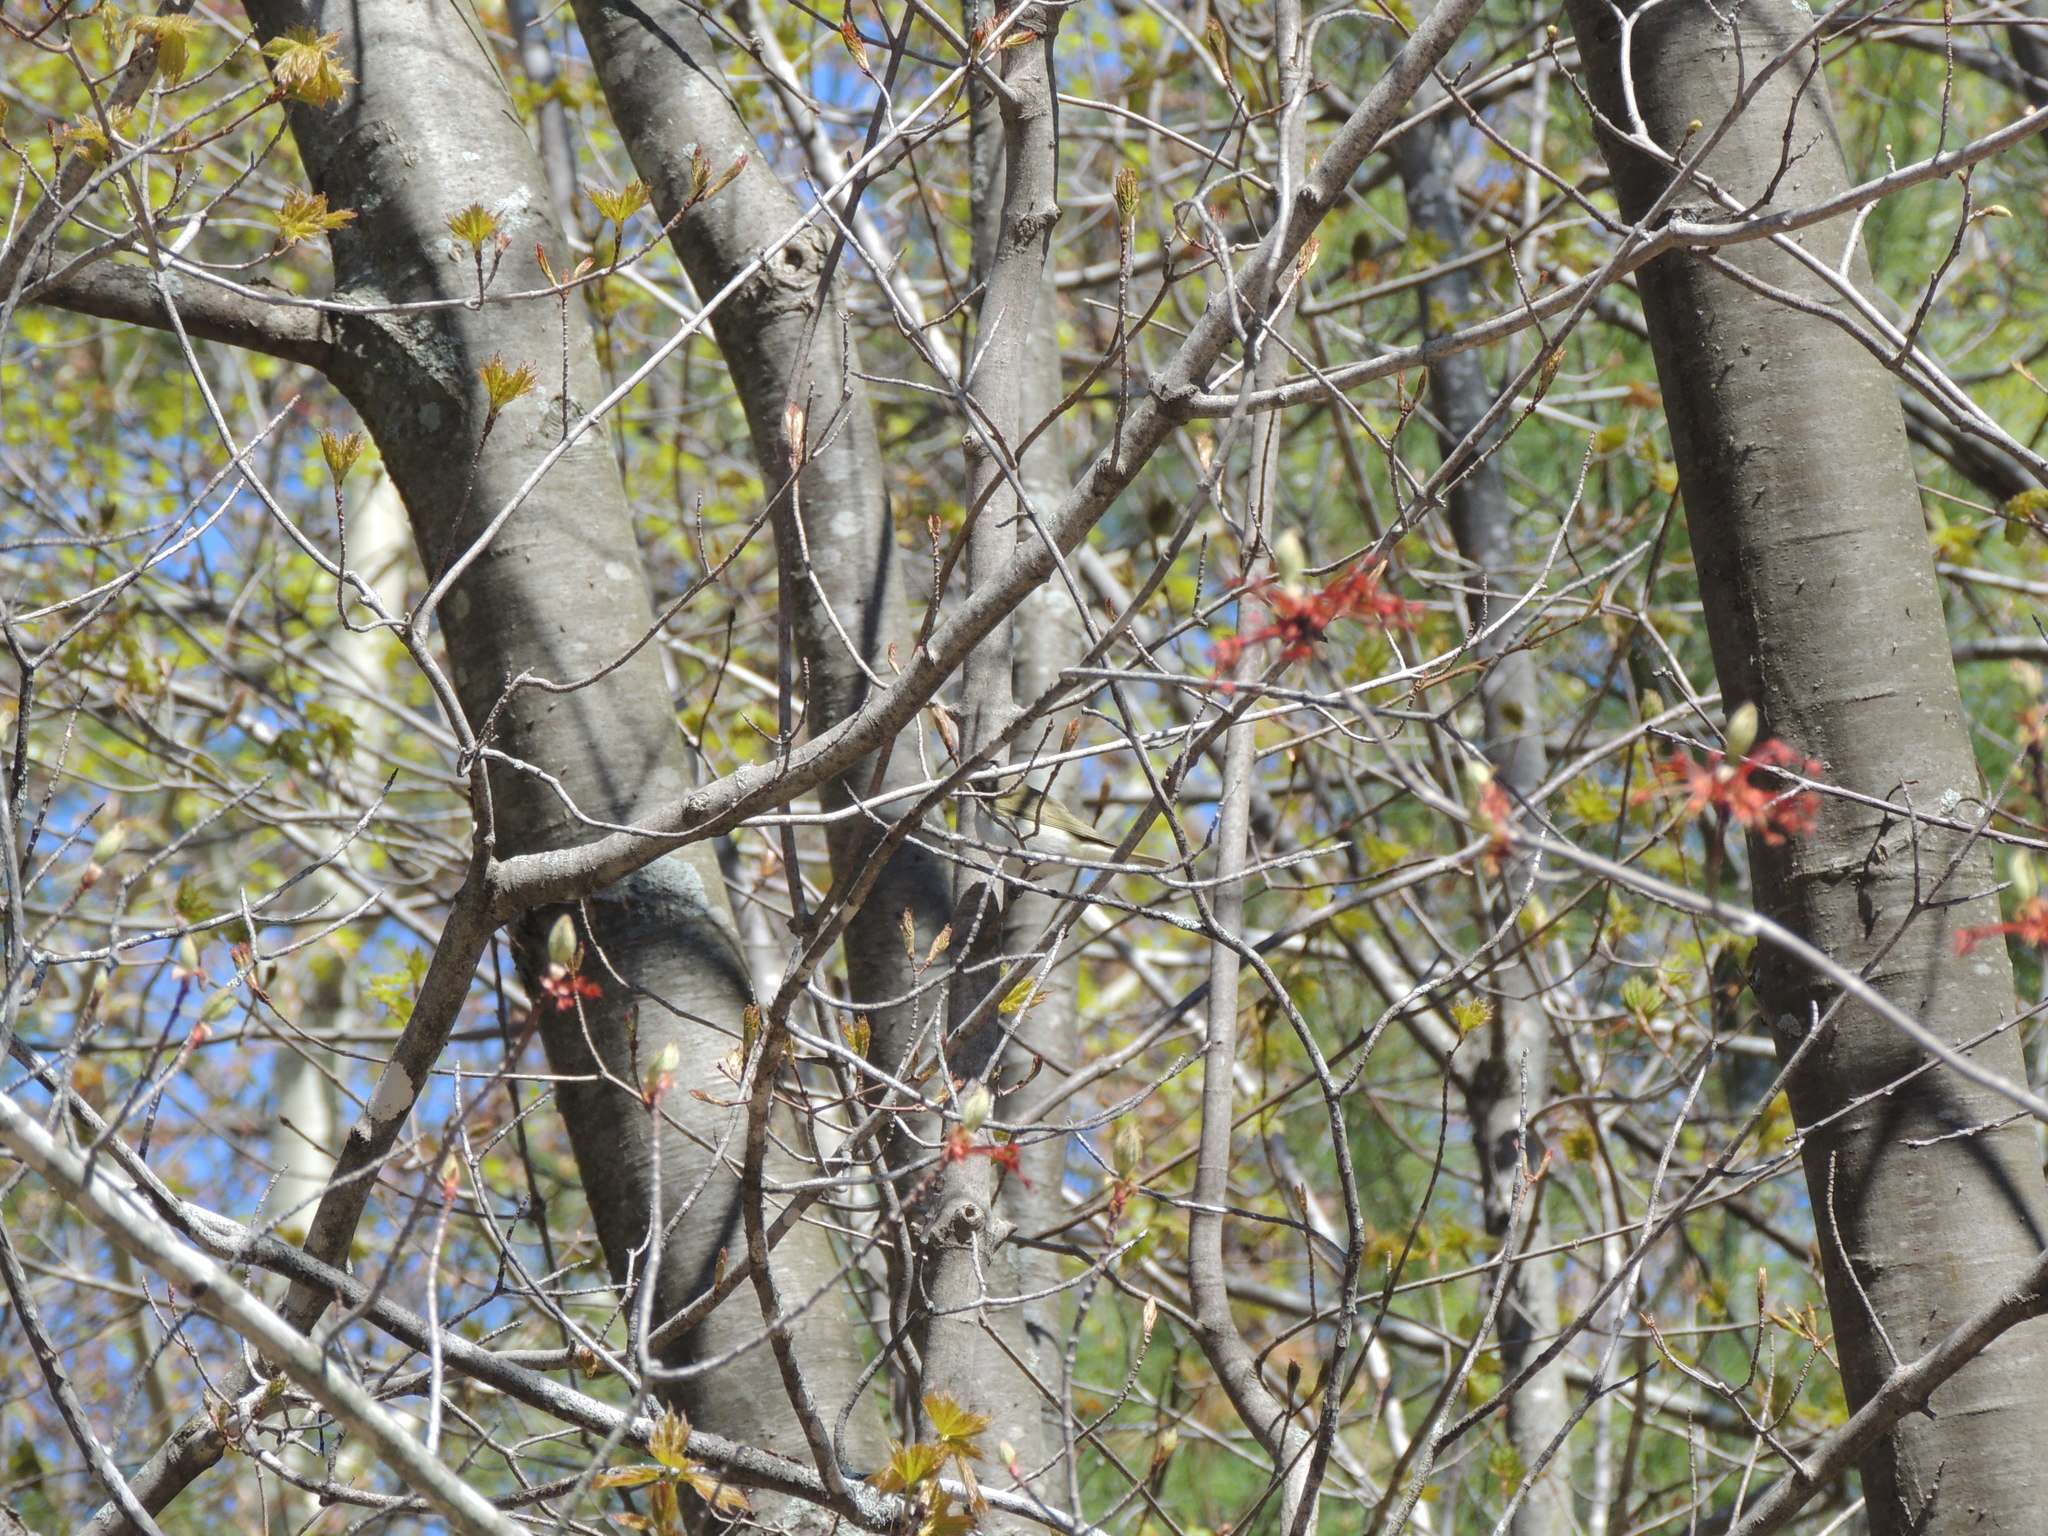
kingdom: Animalia
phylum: Chordata
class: Aves
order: Passeriformes
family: Vireonidae
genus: Vireo
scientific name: Vireo olivaceus
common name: Red-eyed vireo
